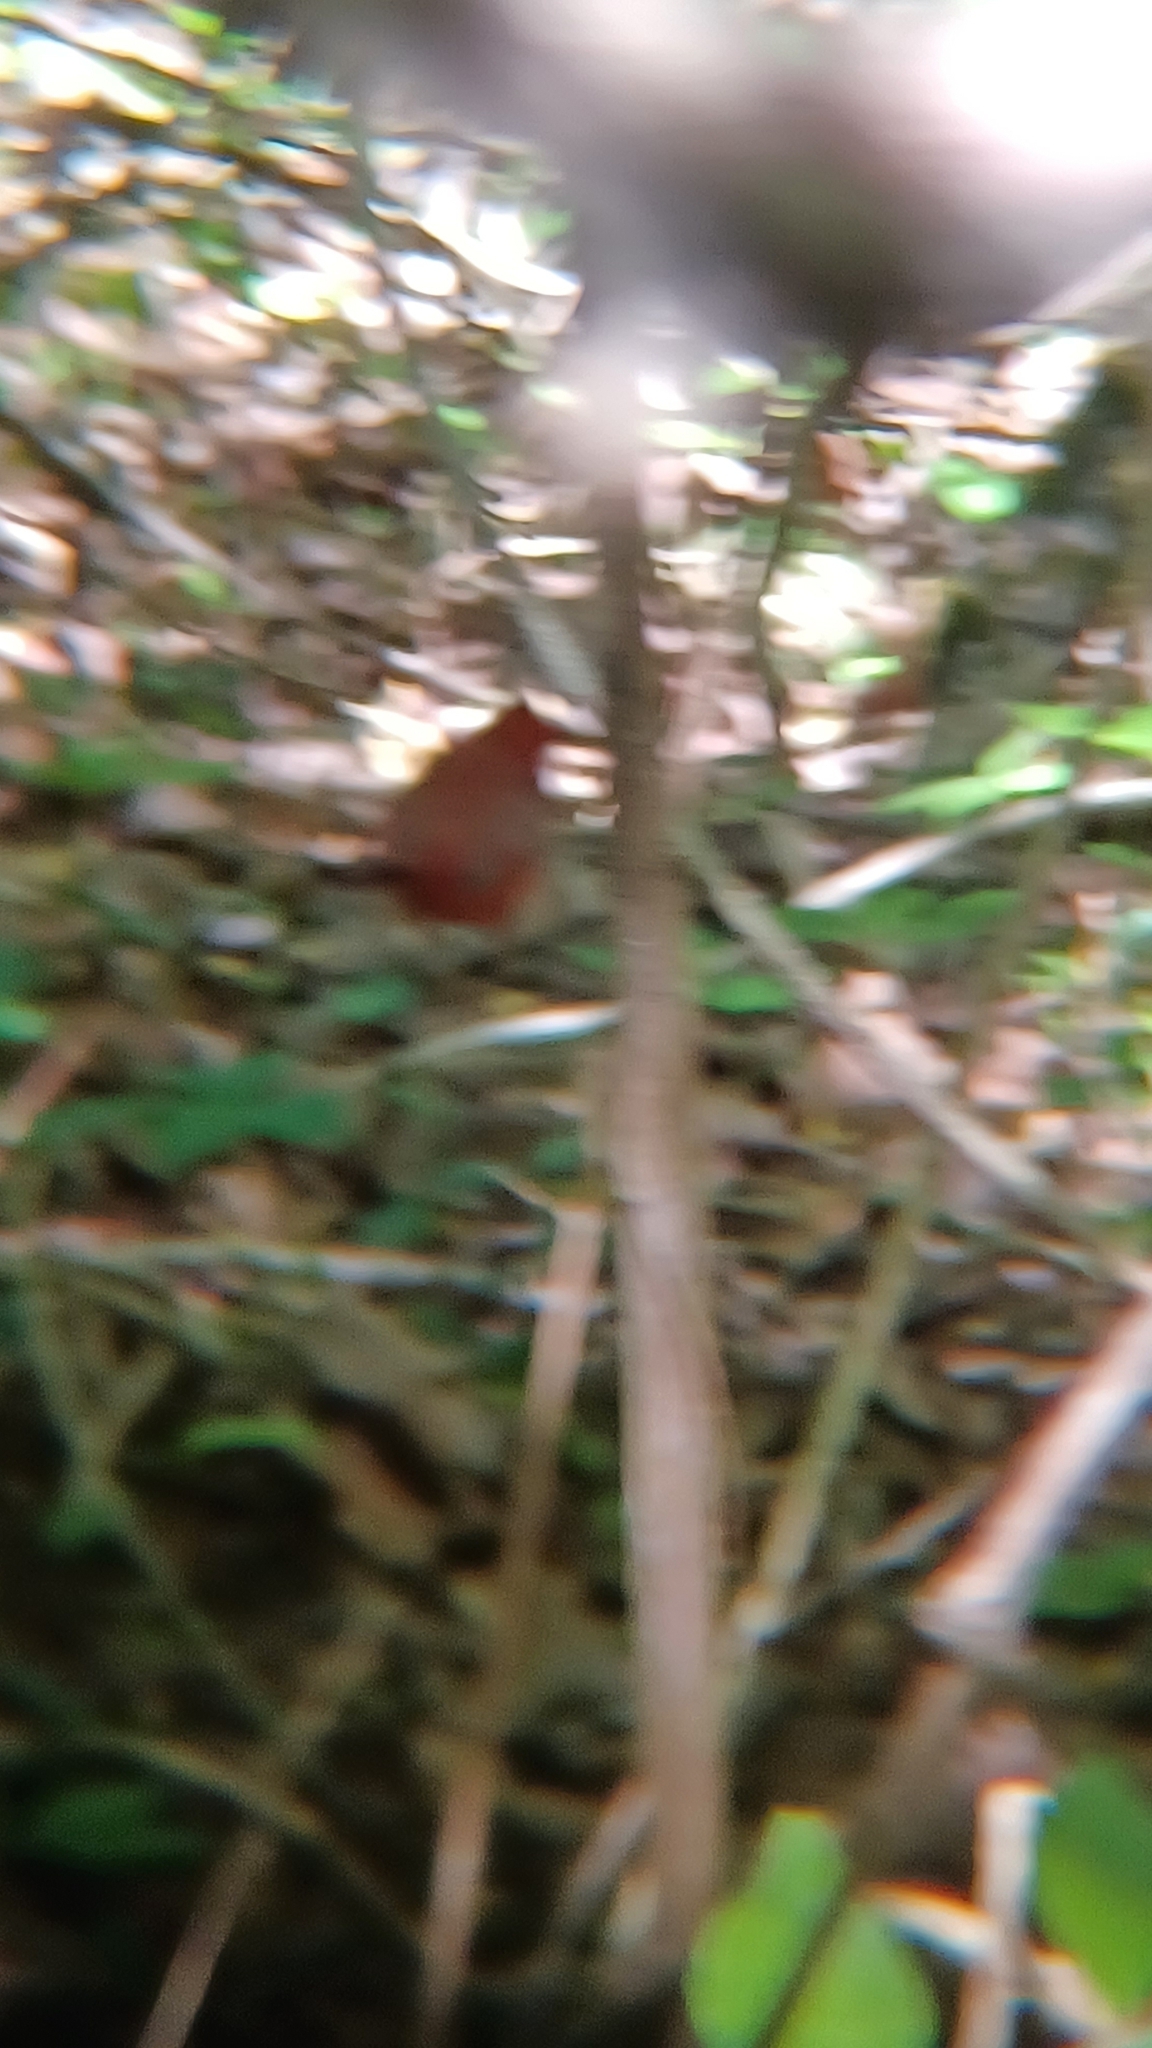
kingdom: Animalia
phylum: Chordata
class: Aves
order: Passeriformes
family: Cardinalidae
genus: Cardinalis
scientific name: Cardinalis cardinalis
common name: Northern cardinal
